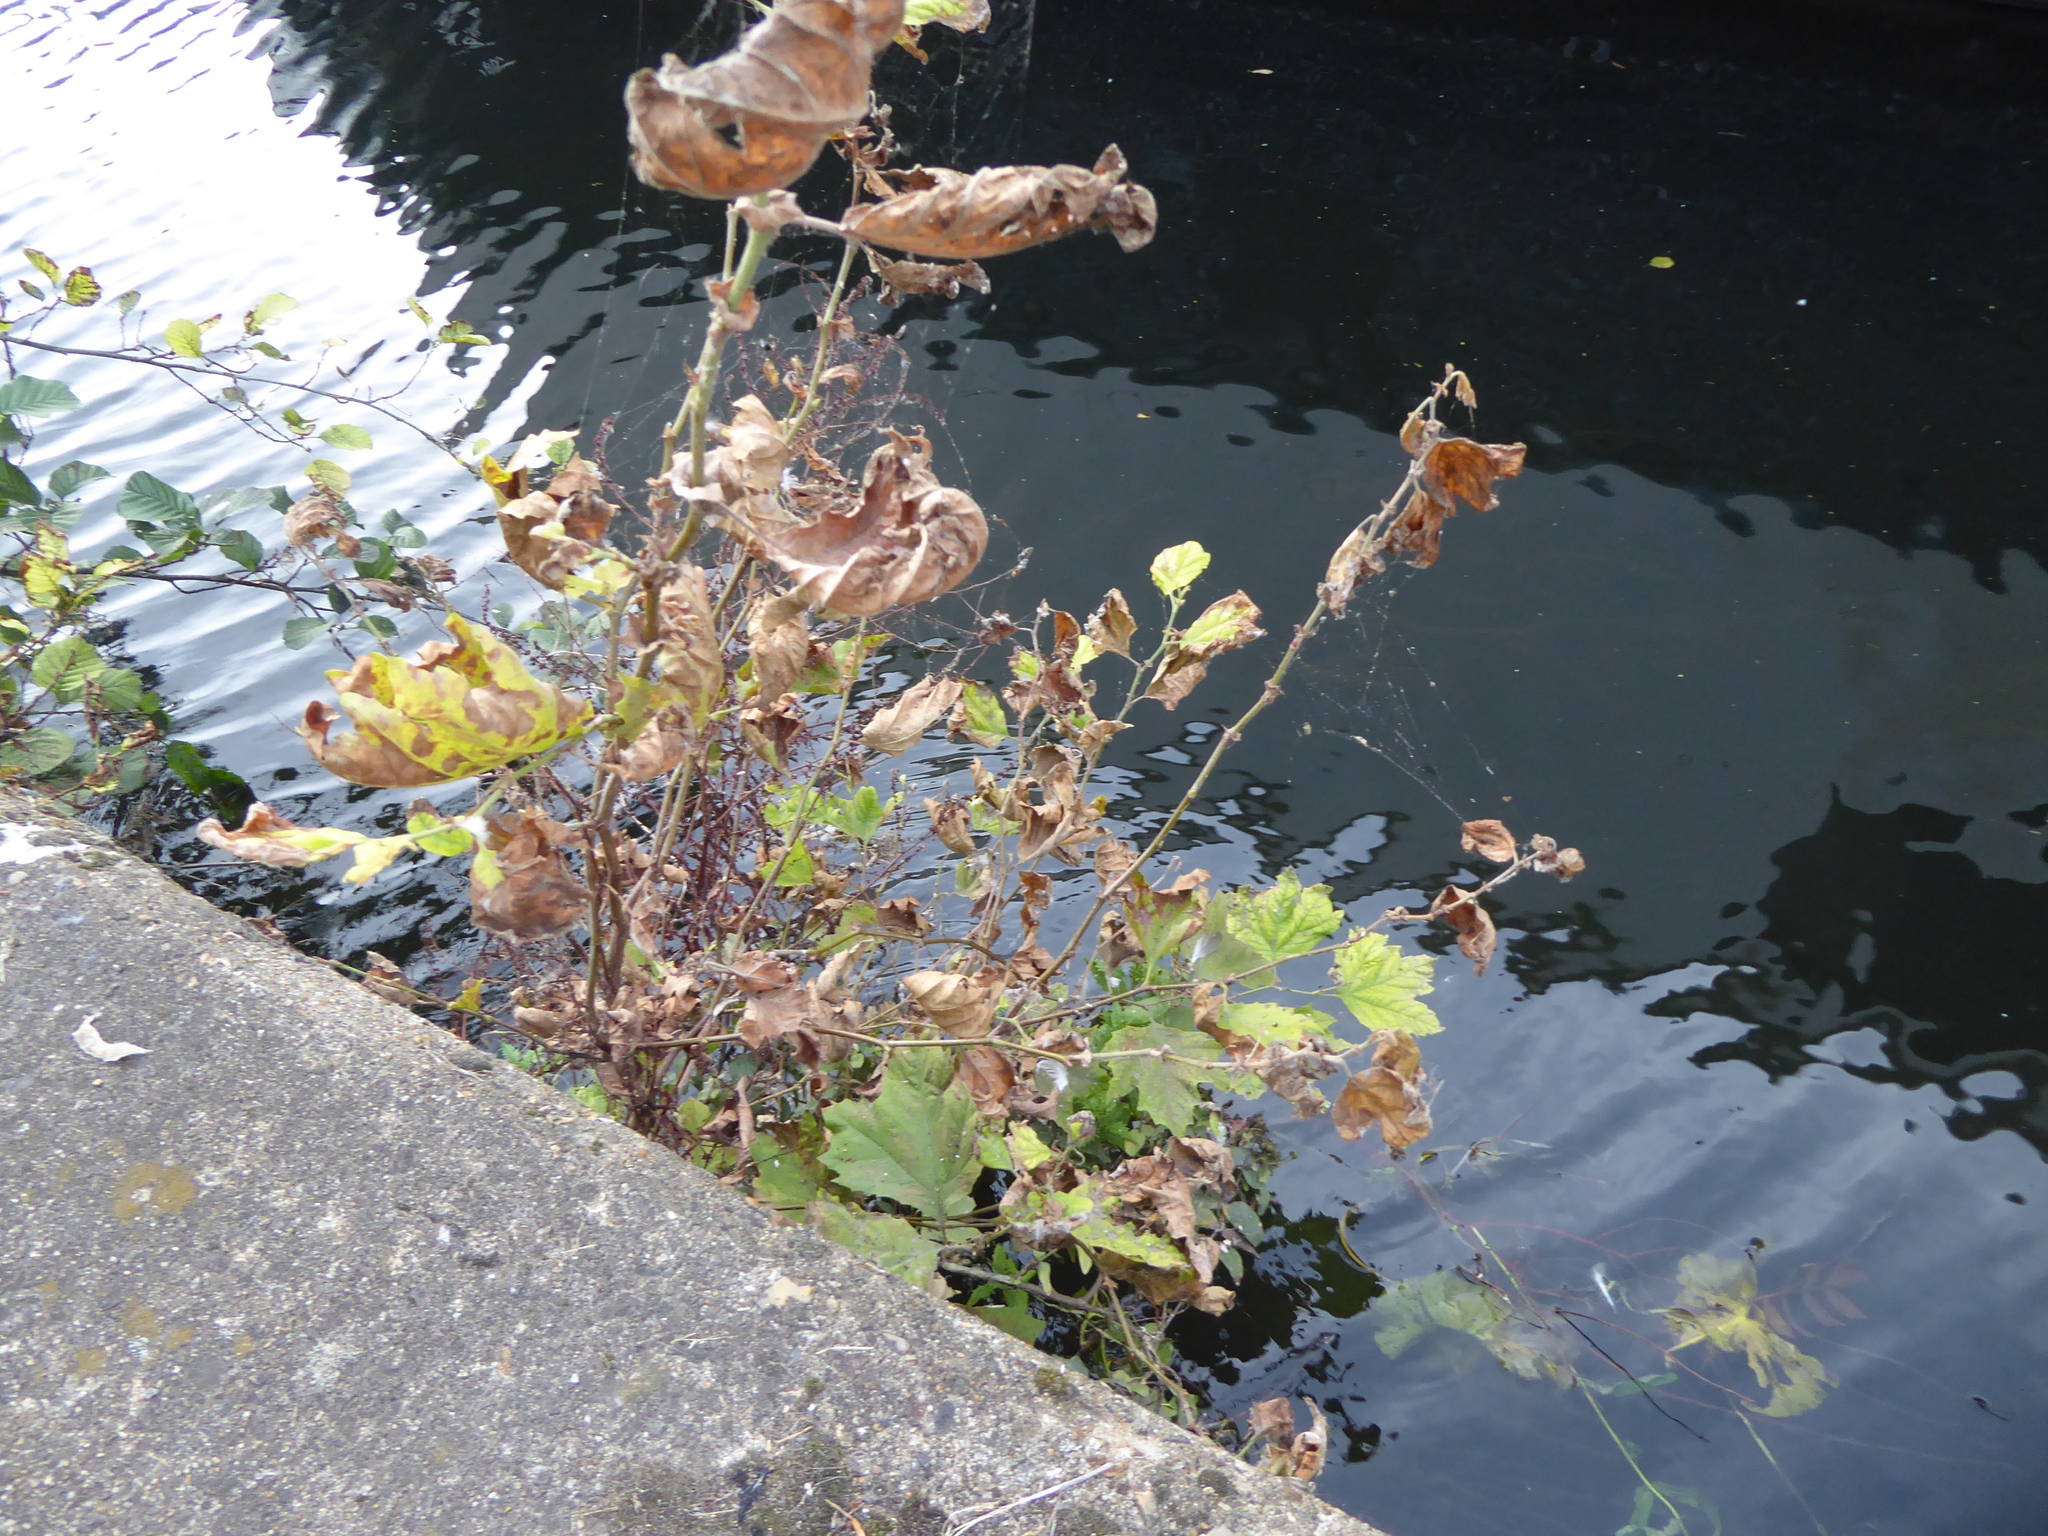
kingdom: Plantae
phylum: Tracheophyta
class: Magnoliopsida
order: Proteales
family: Platanaceae
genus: Platanus
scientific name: Platanus hispanica
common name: London plane
